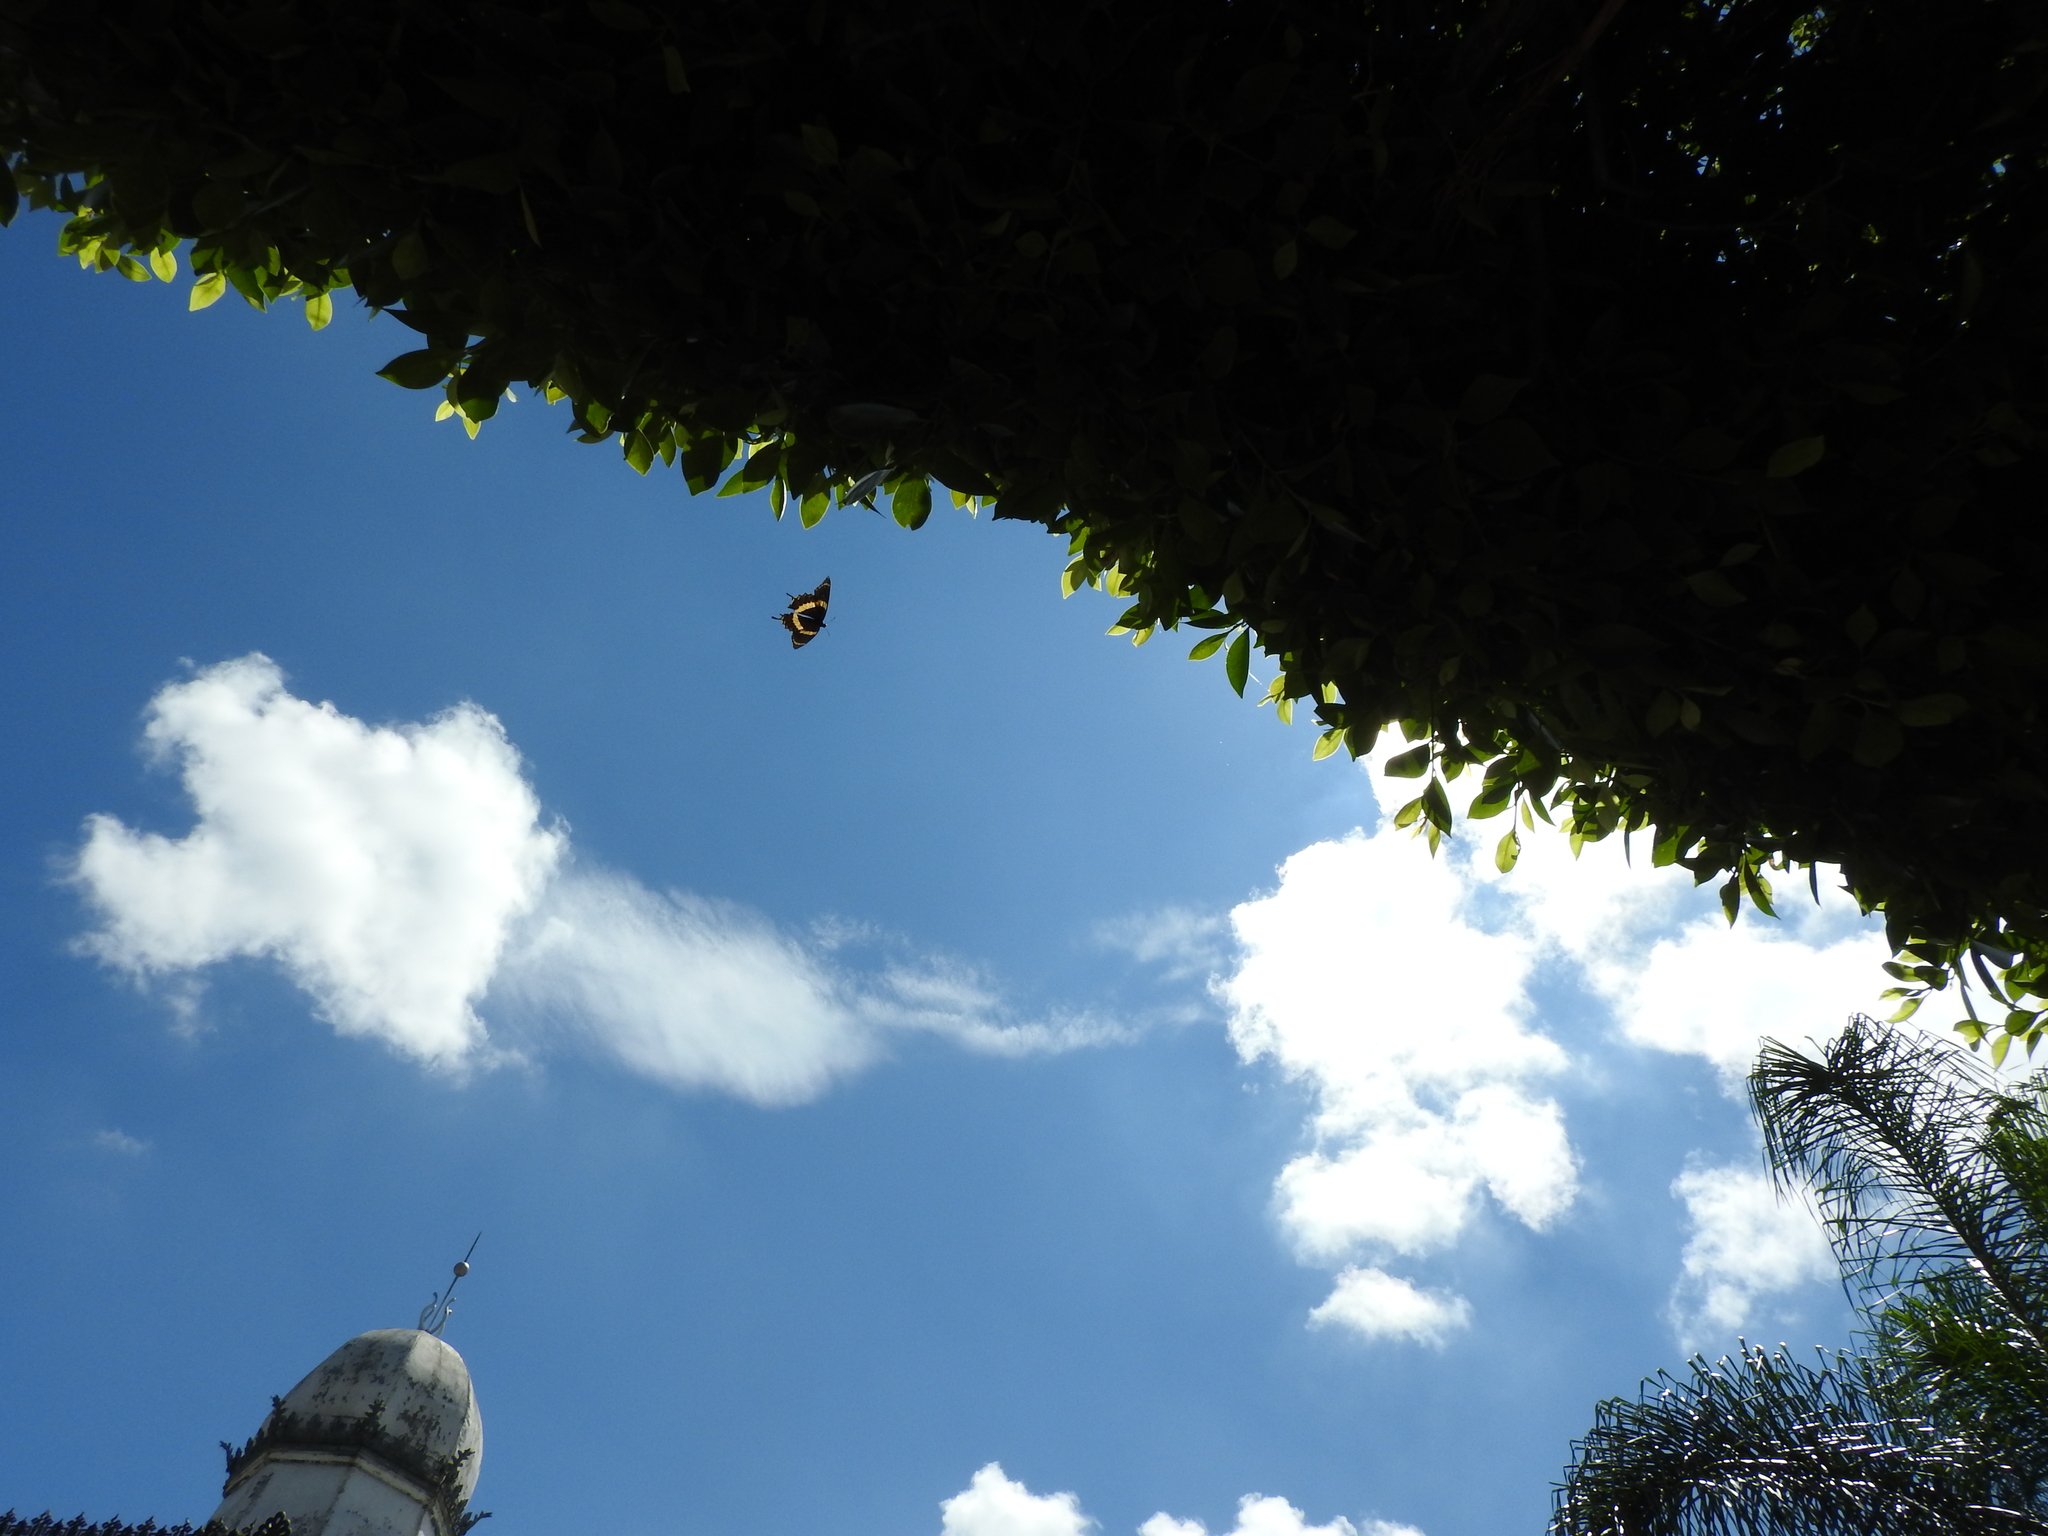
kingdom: Animalia
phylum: Arthropoda
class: Insecta
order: Lepidoptera
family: Papilionidae
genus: Papilio
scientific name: Papilio garamas
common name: Magnificent swallowtail
